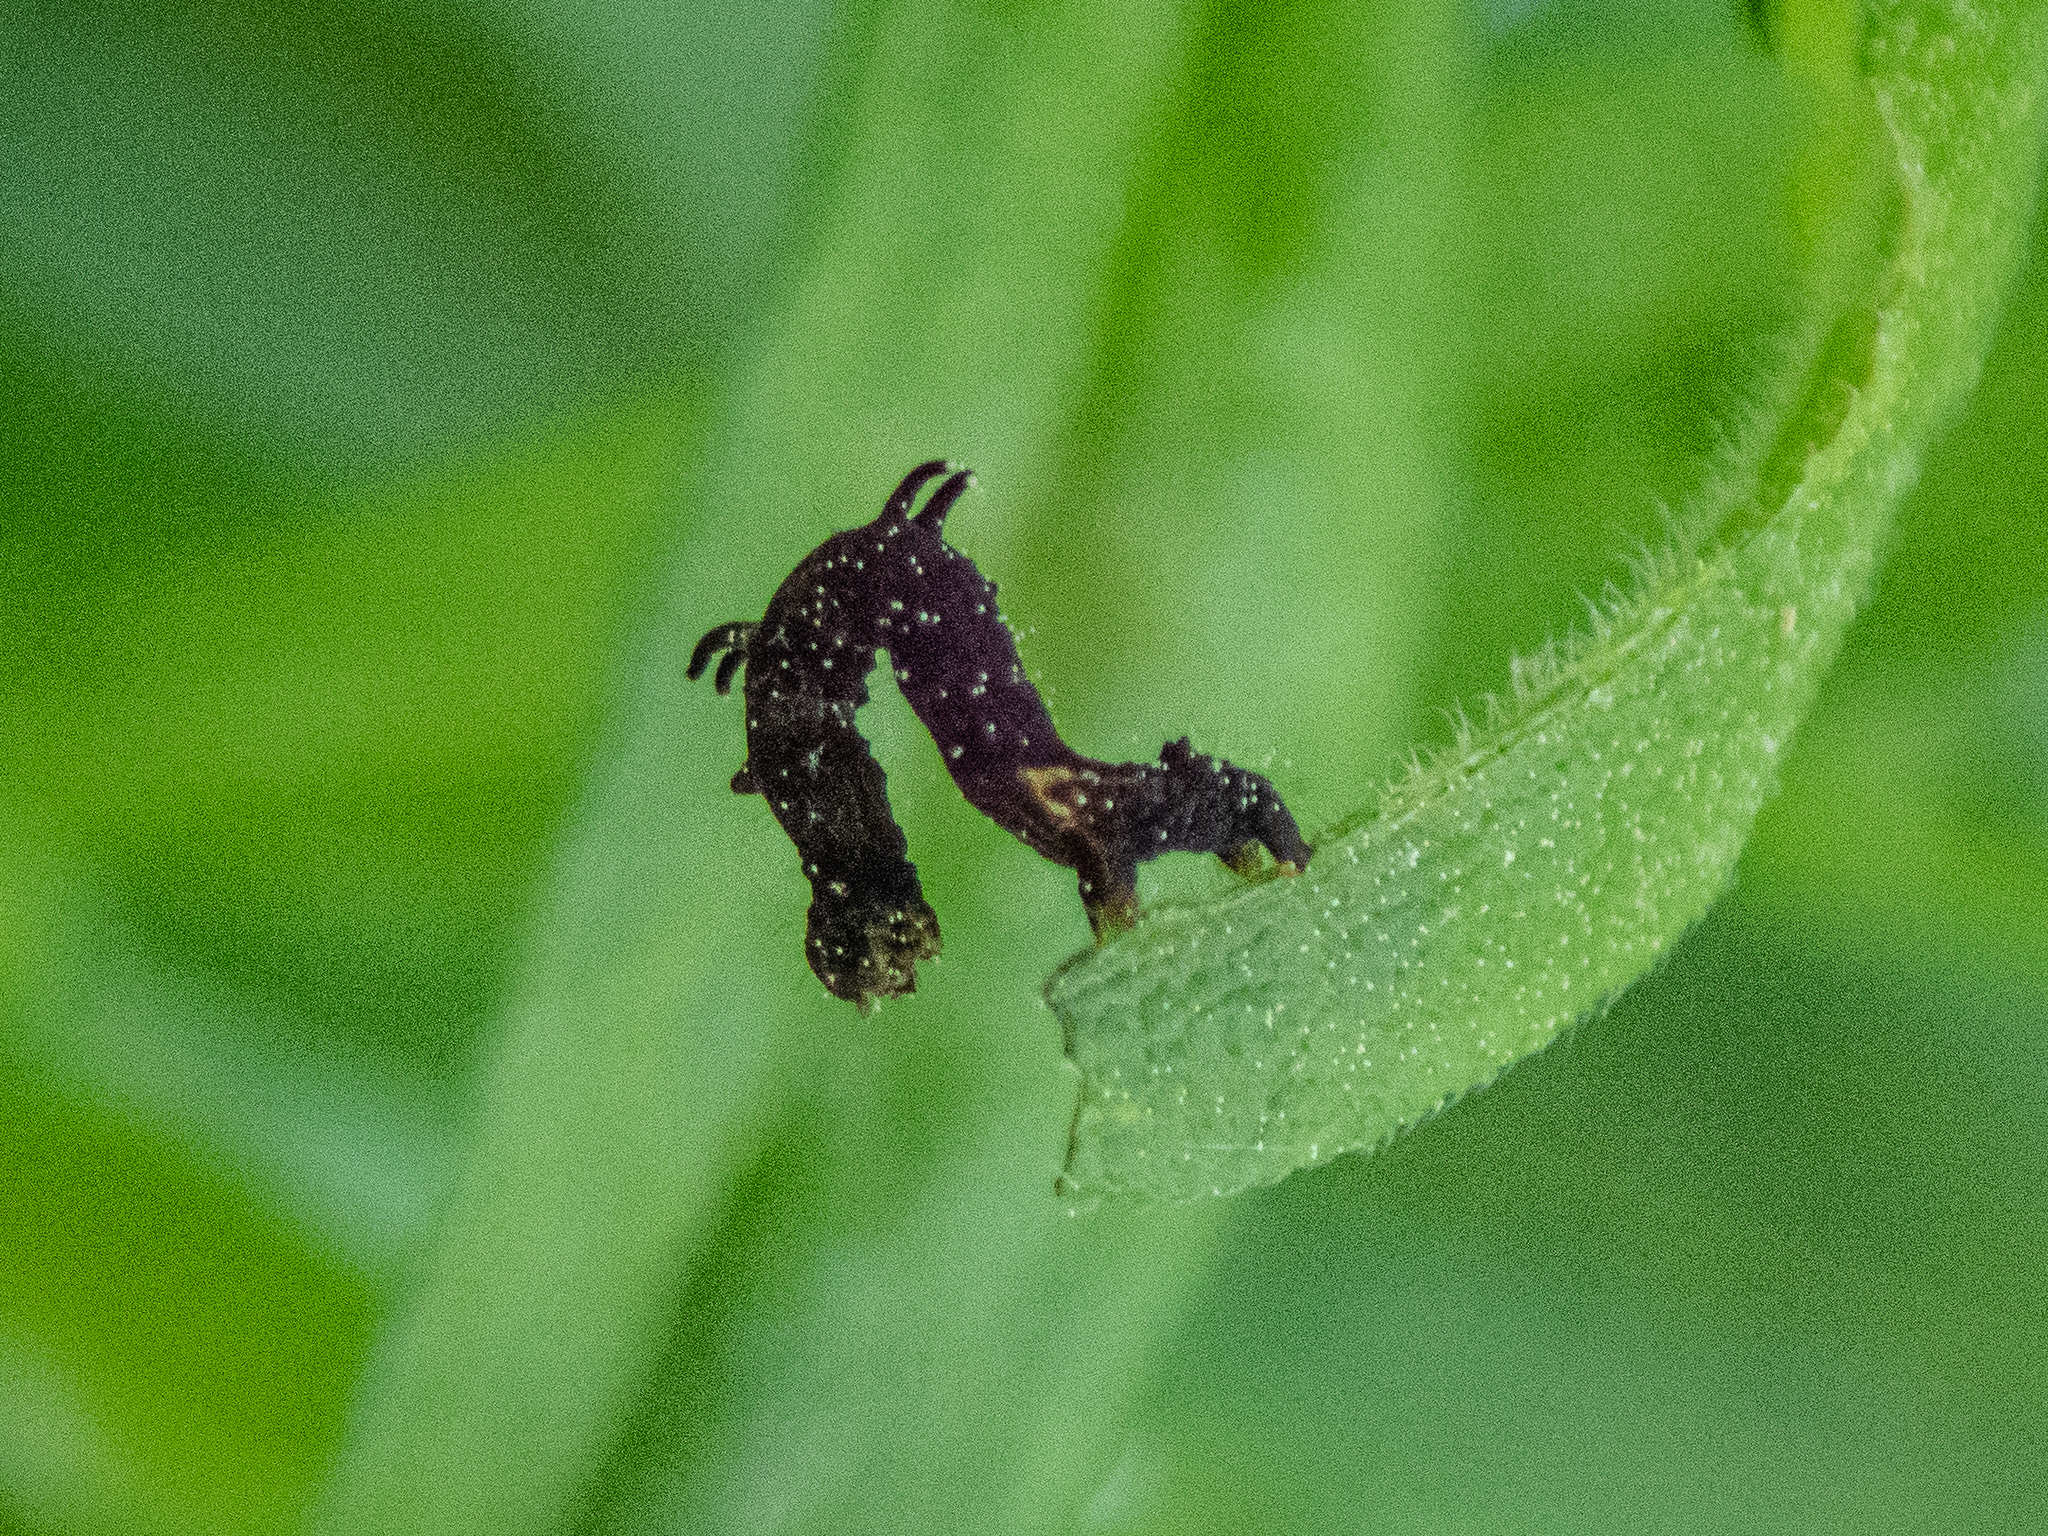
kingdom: Animalia
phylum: Arthropoda
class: Insecta
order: Lepidoptera
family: Geometridae
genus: Nematocampa
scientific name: Nematocampa resistaria
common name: Horned spanworm moth
